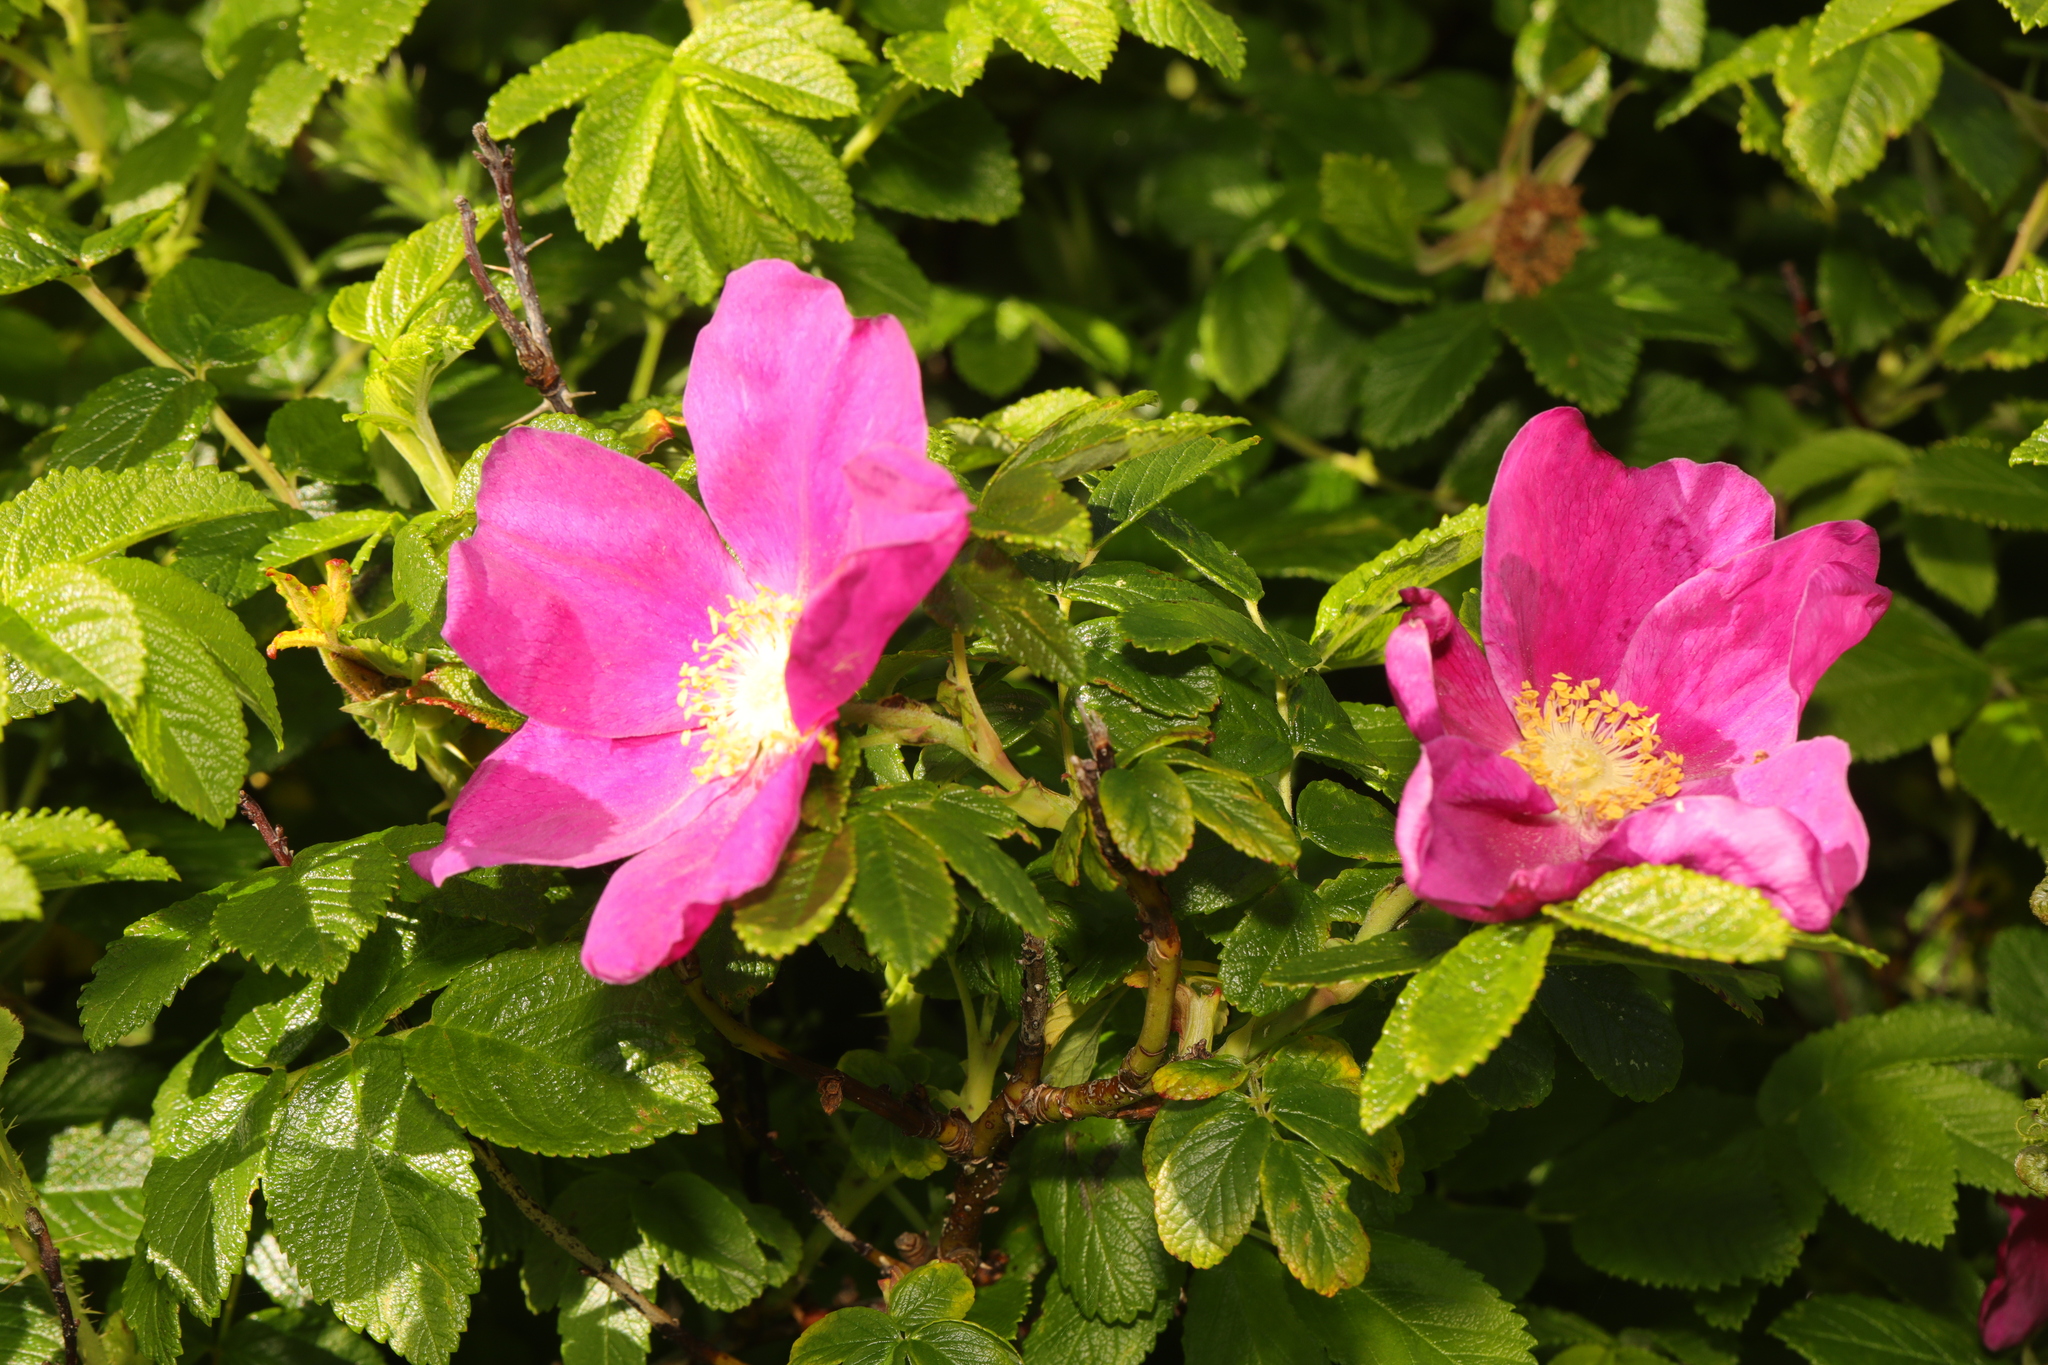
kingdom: Plantae
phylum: Tracheophyta
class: Magnoliopsida
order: Rosales
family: Rosaceae
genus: Rosa
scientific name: Rosa rugosa
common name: Japanese rose
